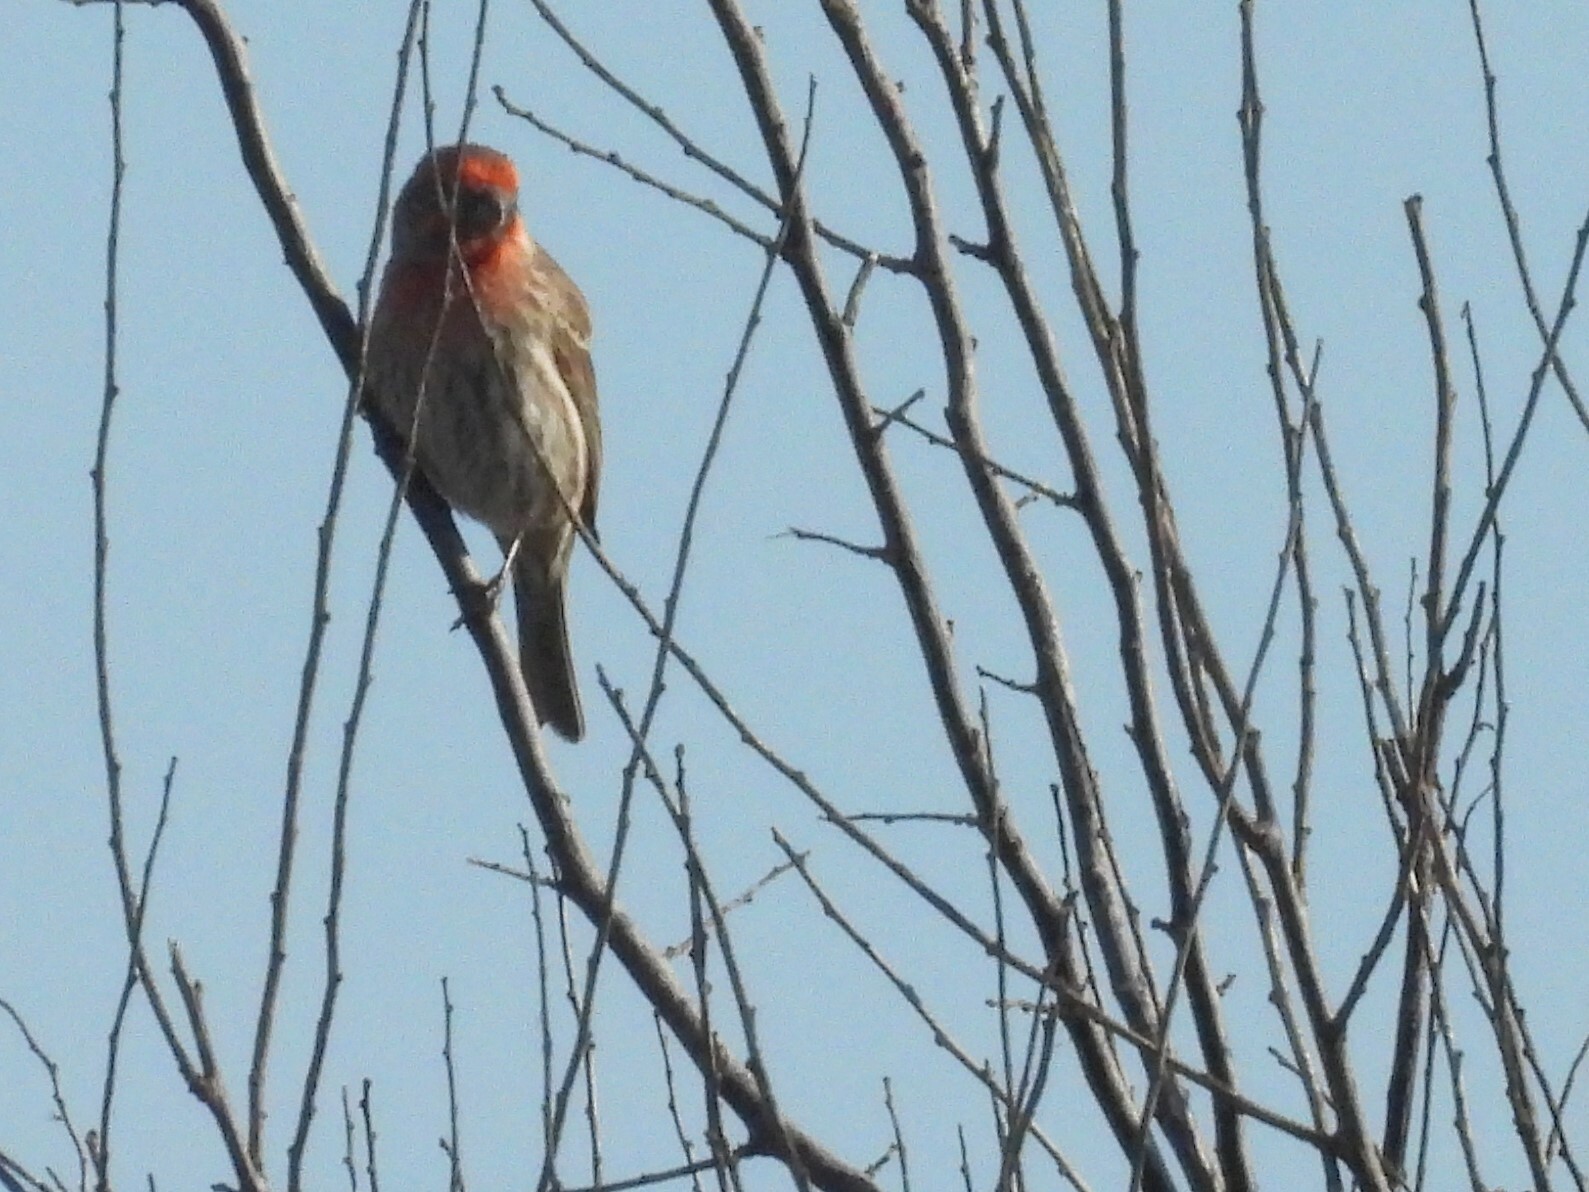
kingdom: Animalia
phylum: Chordata
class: Aves
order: Passeriformes
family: Fringillidae
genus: Haemorhous
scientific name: Haemorhous mexicanus
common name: House finch
